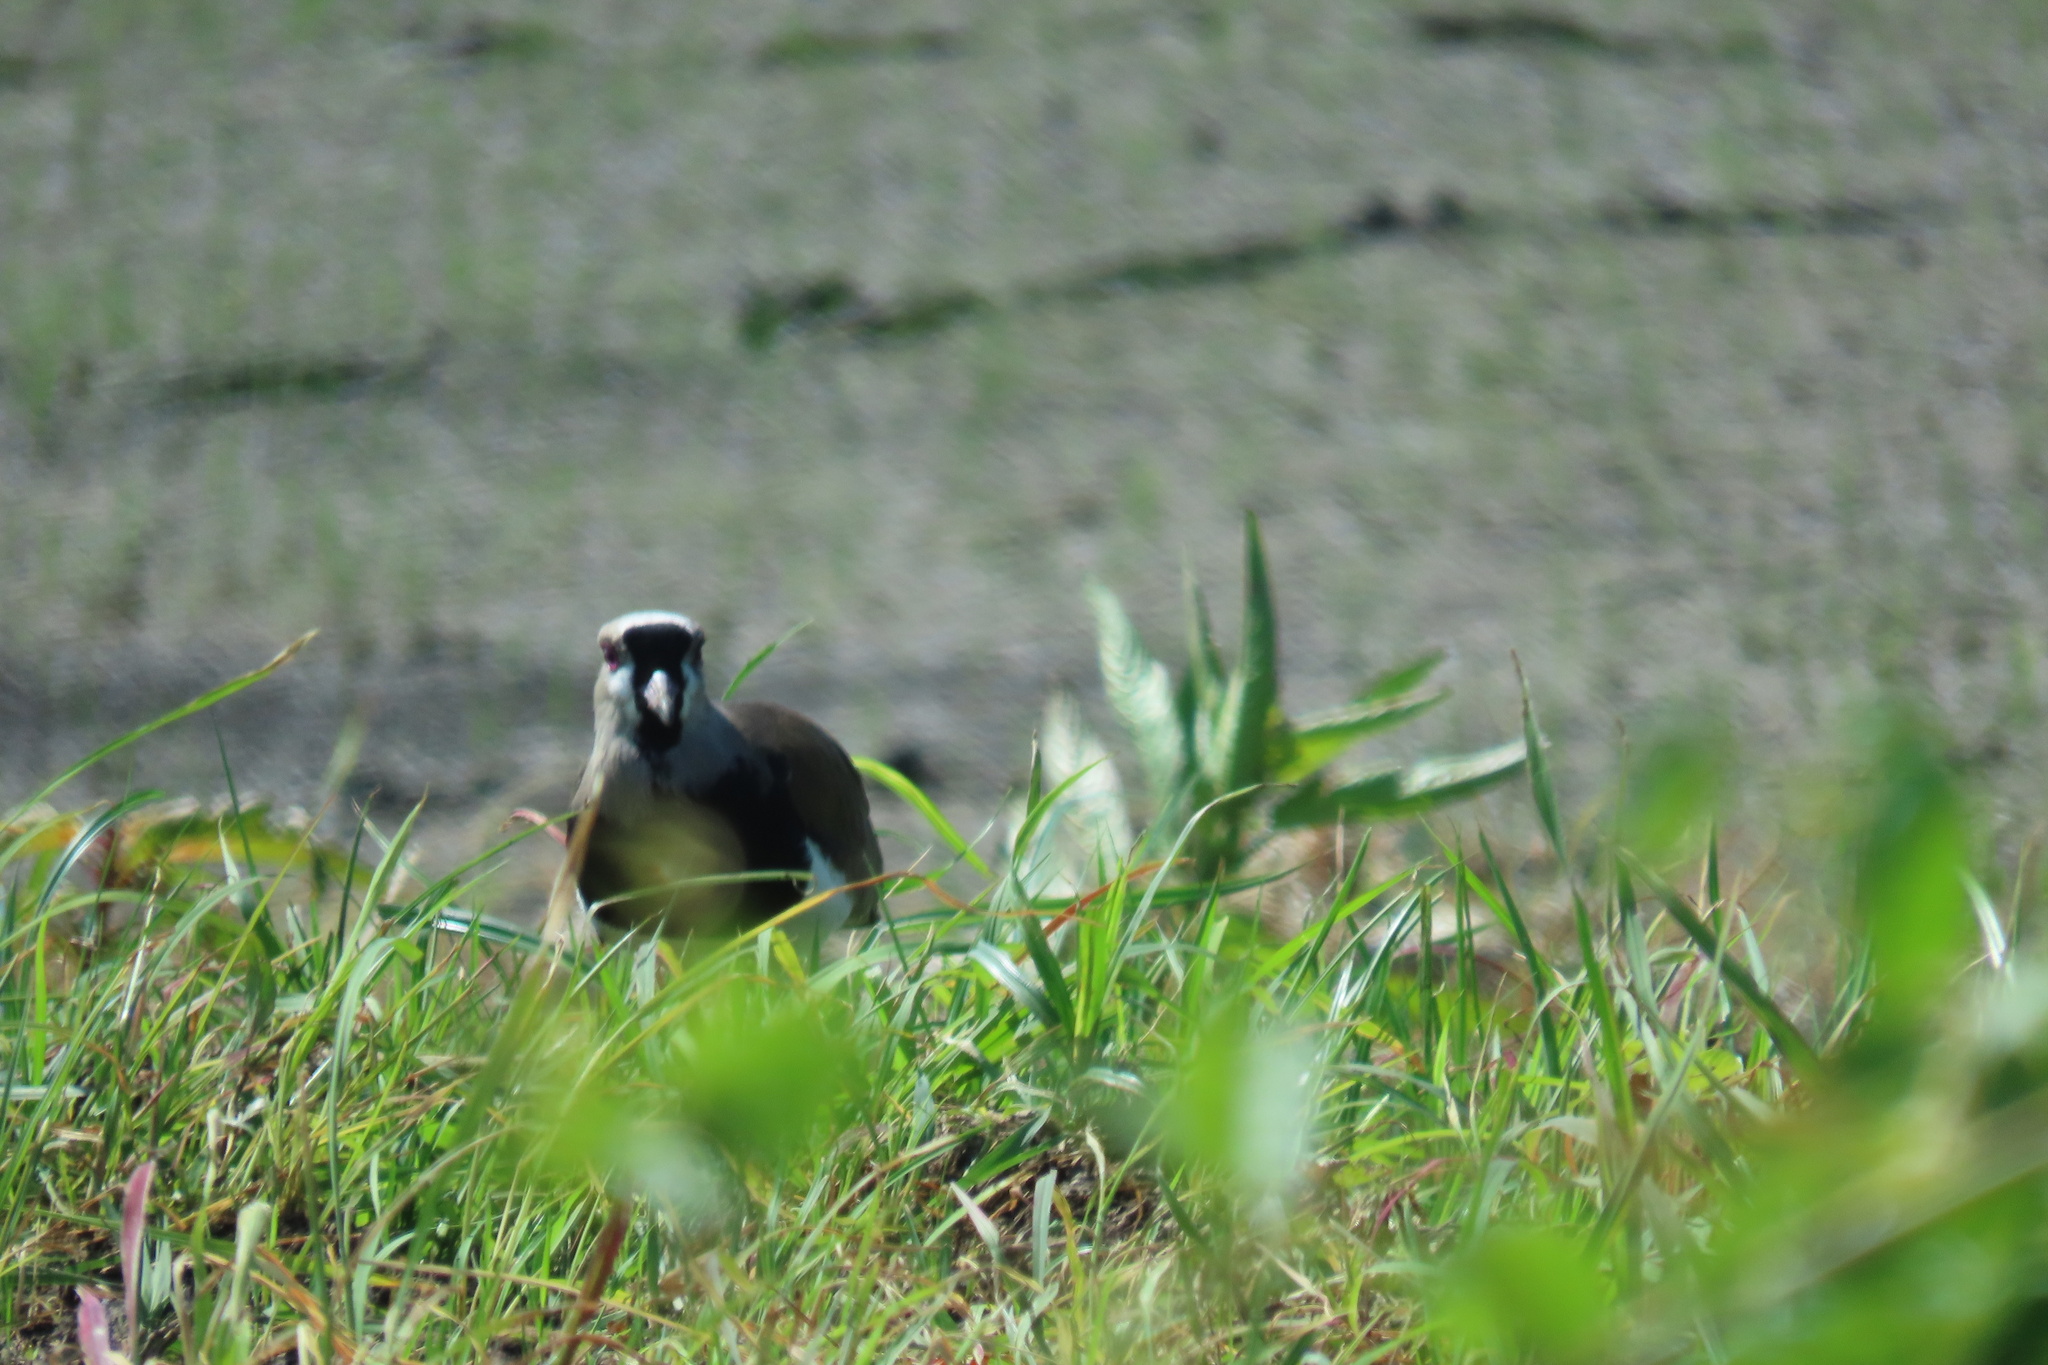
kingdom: Animalia
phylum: Chordata
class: Aves
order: Charadriiformes
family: Charadriidae
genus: Vanellus
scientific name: Vanellus chilensis
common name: Southern lapwing
